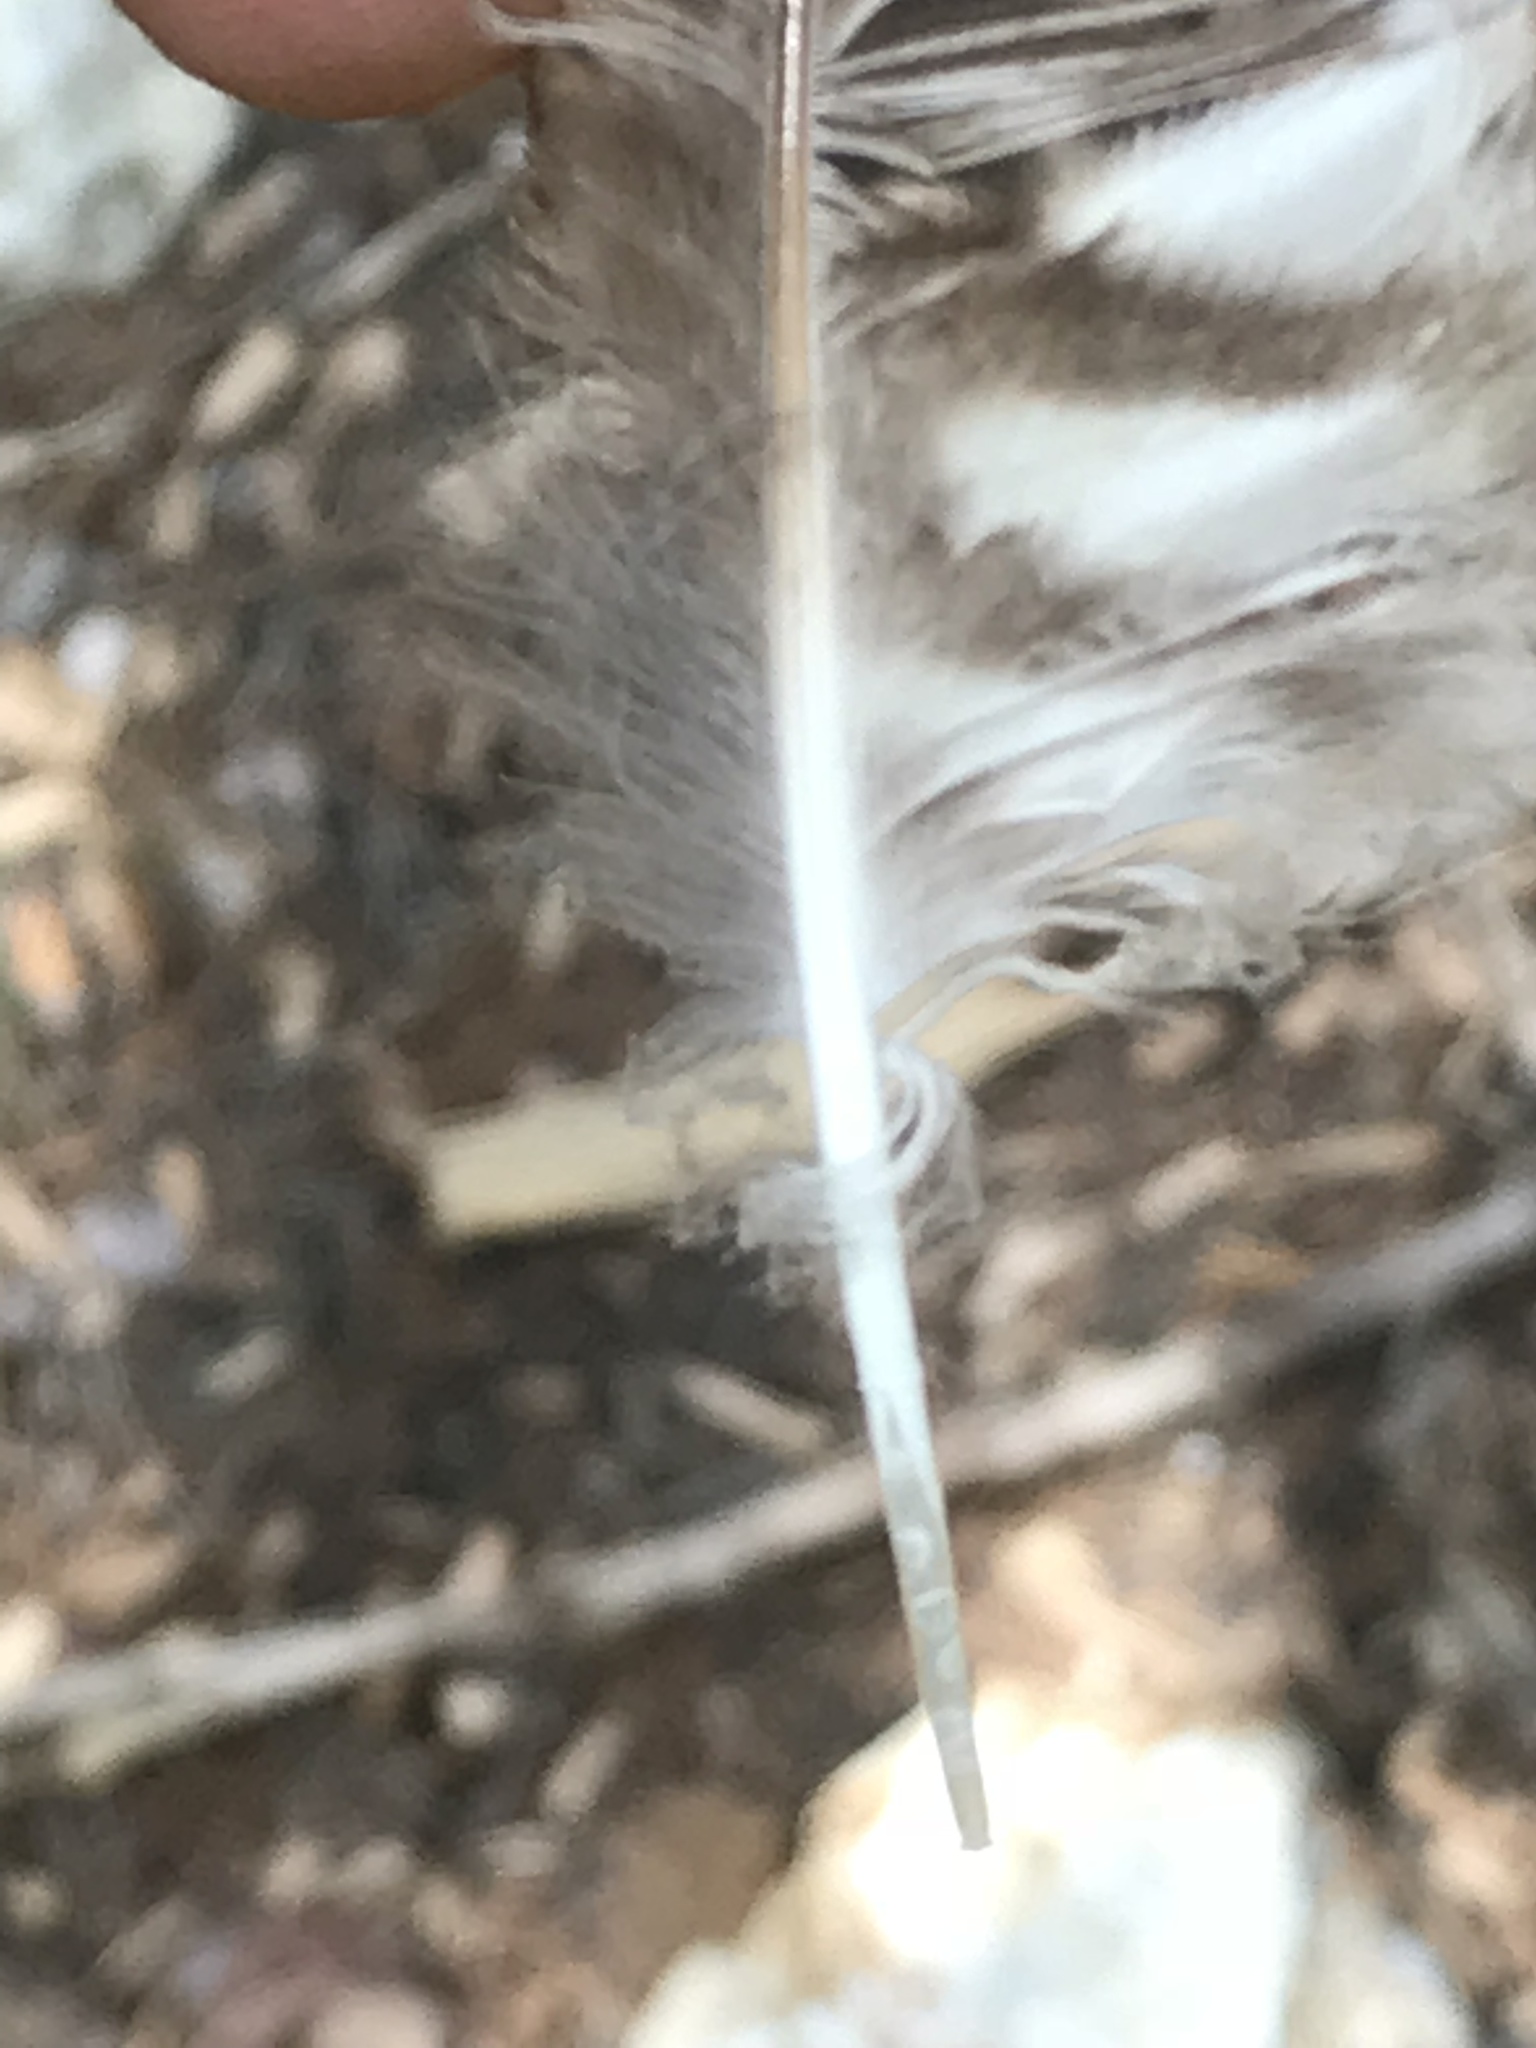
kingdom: Animalia
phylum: Chordata
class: Aves
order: Strigiformes
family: Strigidae
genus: Megascops
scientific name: Megascops asio
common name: Eastern screech-owl
